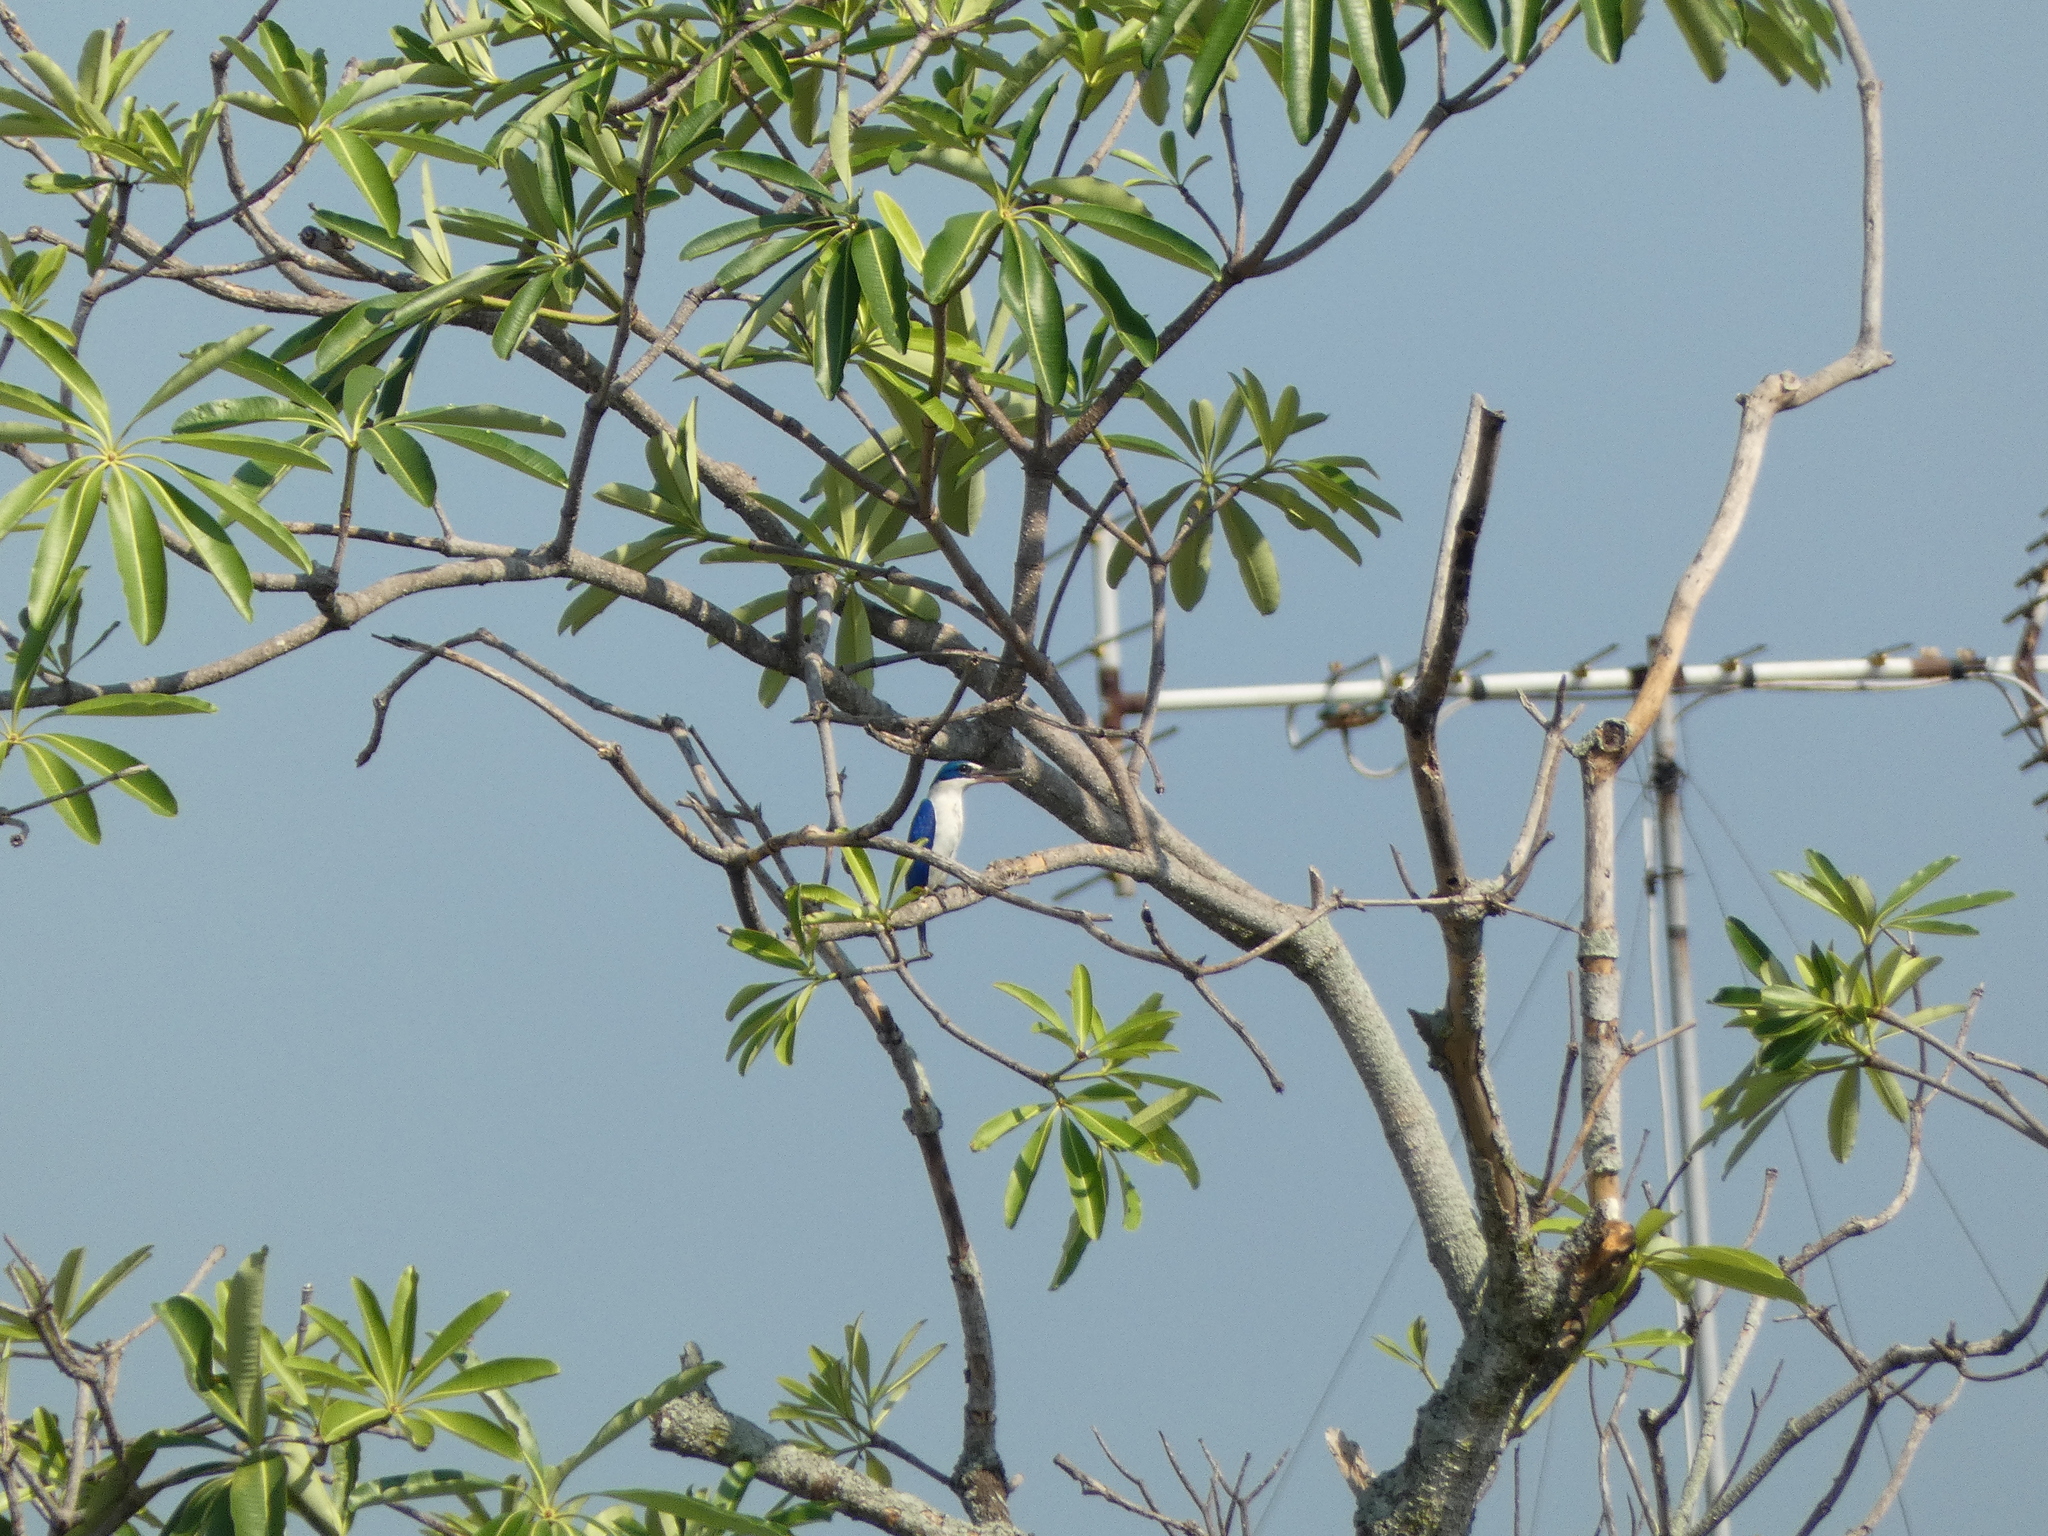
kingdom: Animalia
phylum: Chordata
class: Aves
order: Coraciiformes
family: Alcedinidae
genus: Todiramphus
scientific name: Todiramphus chloris
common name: Collared kingfisher
